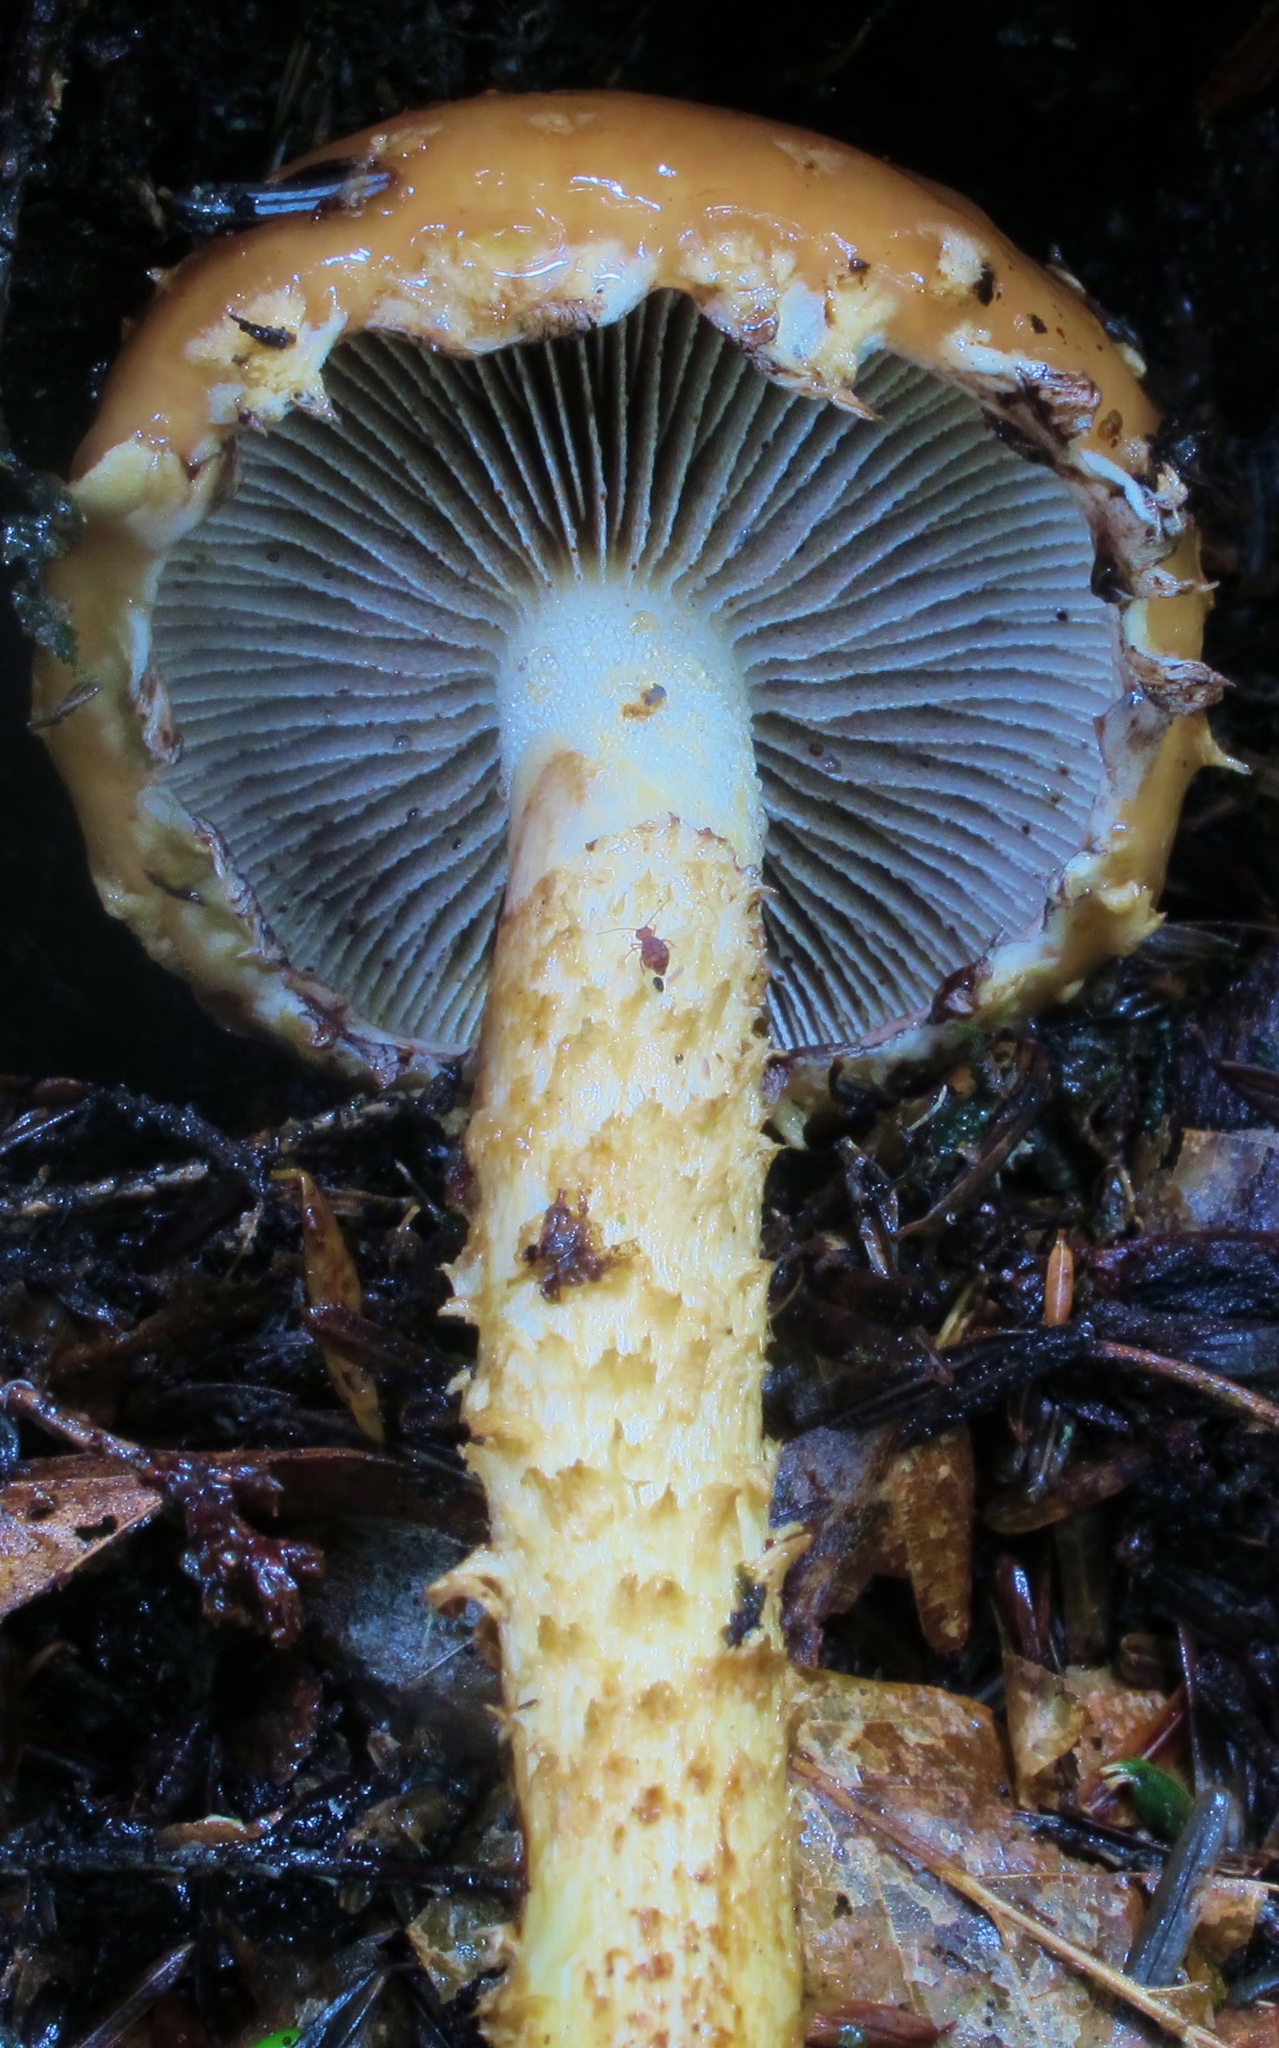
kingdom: Fungi
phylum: Basidiomycota
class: Agaricomycetes
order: Agaricales
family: Tubariaceae
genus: Hemistropharia
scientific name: Hemistropharia albocrenulata
